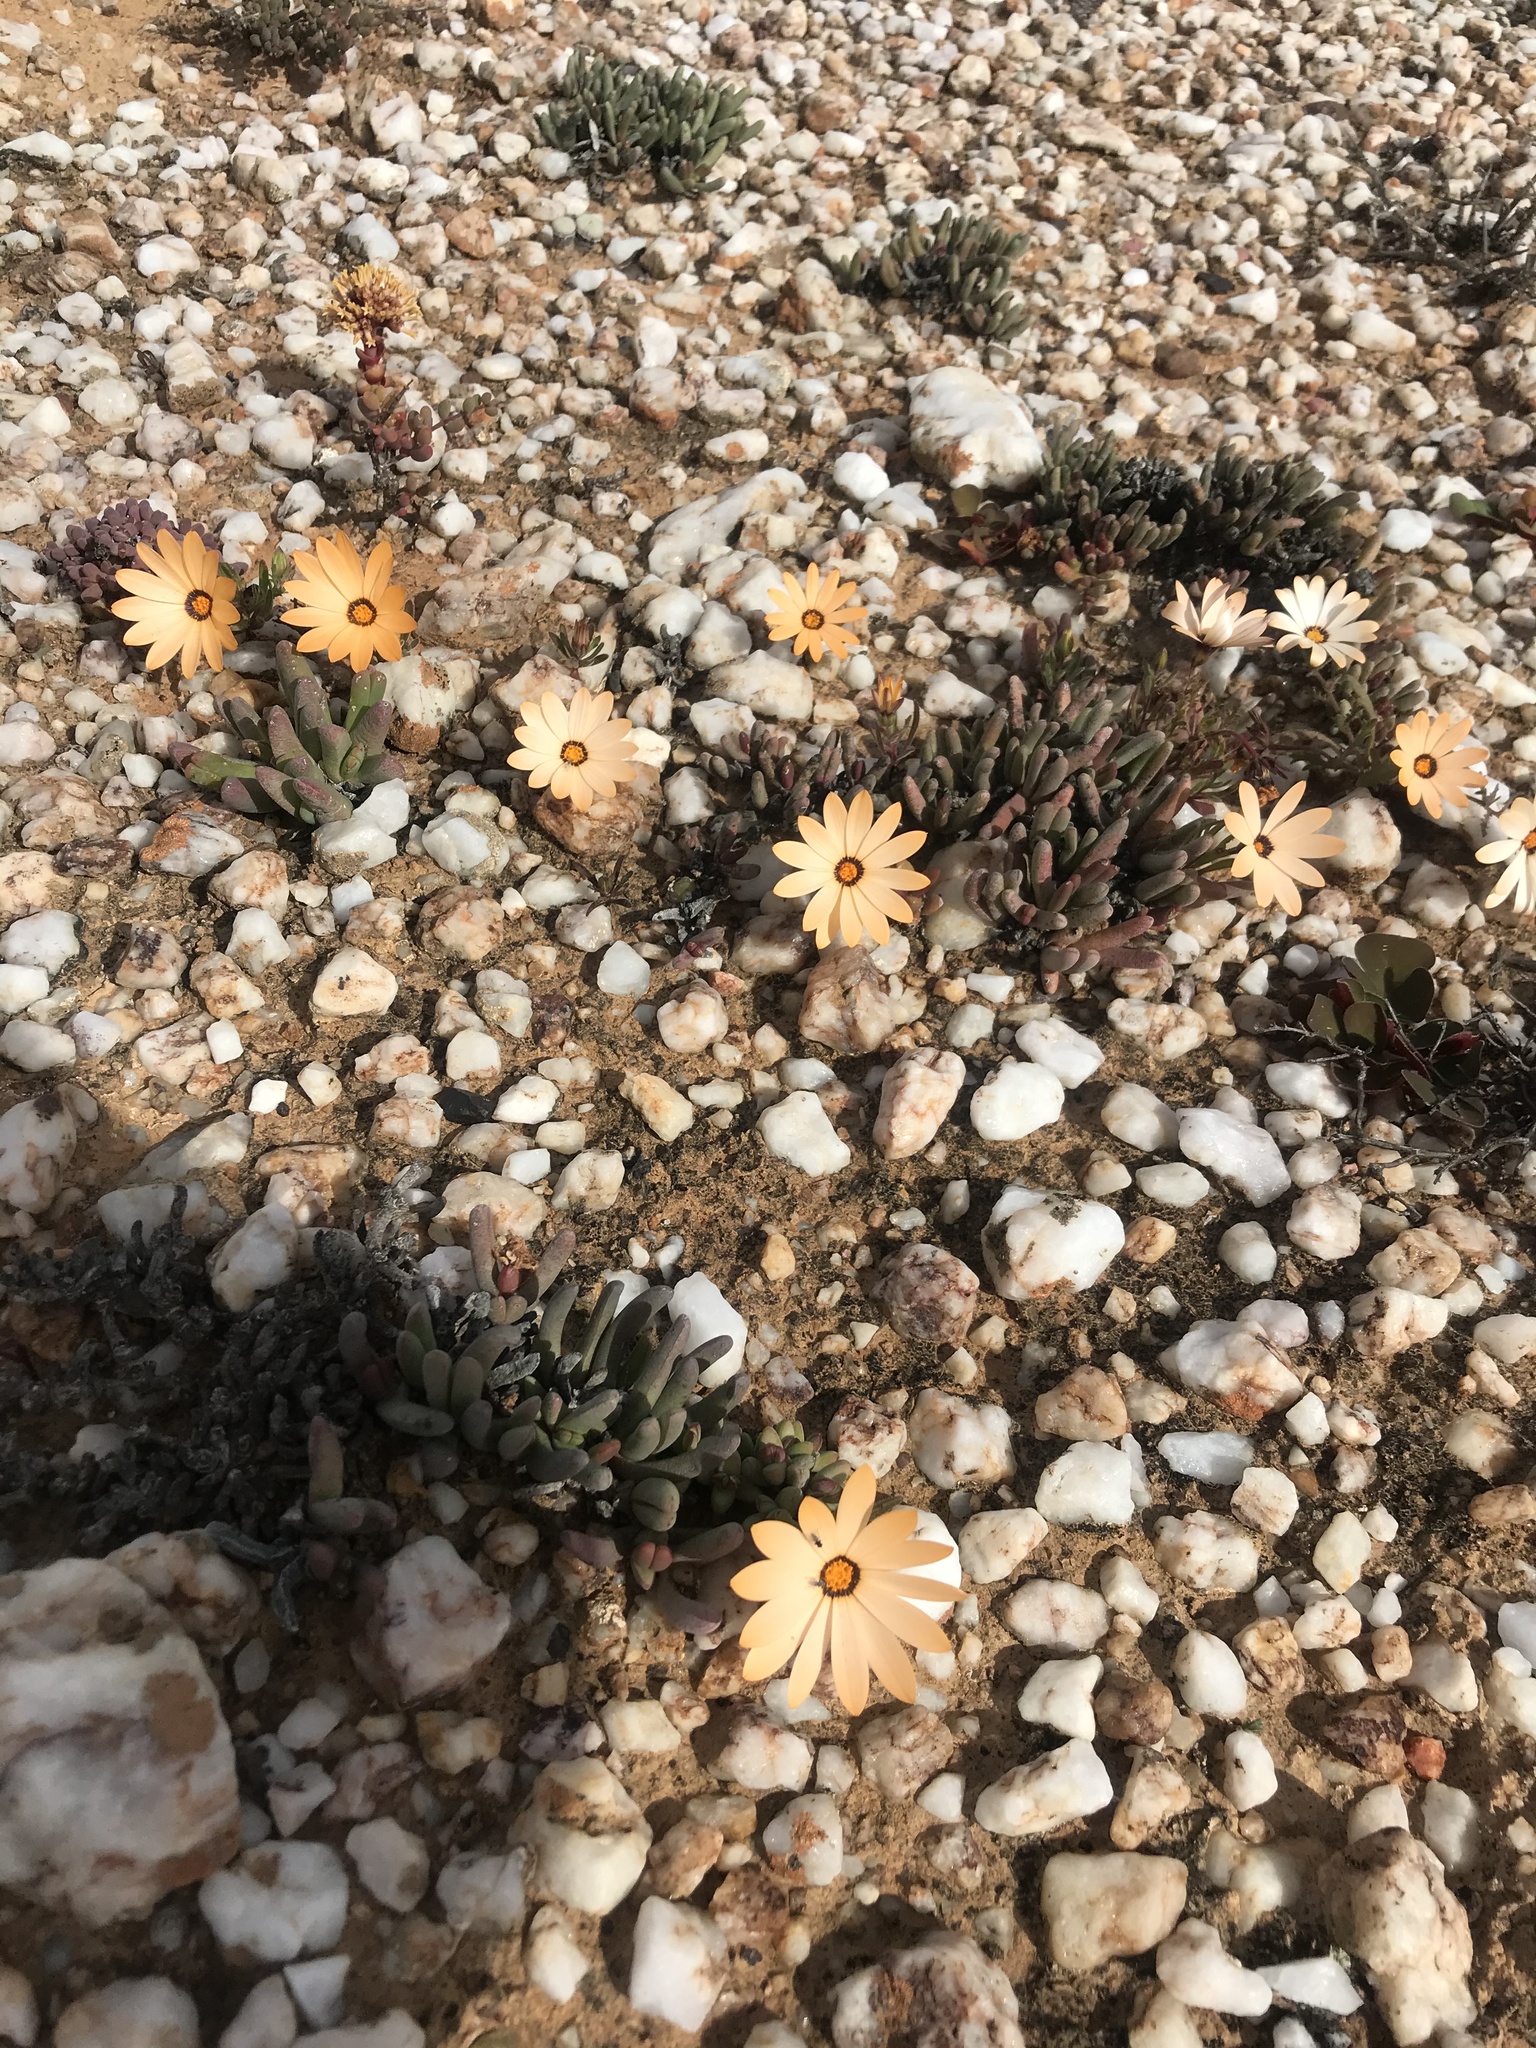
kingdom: Plantae
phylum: Tracheophyta
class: Magnoliopsida
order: Asterales
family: Asteraceae
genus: Dimorphotheca
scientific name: Dimorphotheca pinnata
